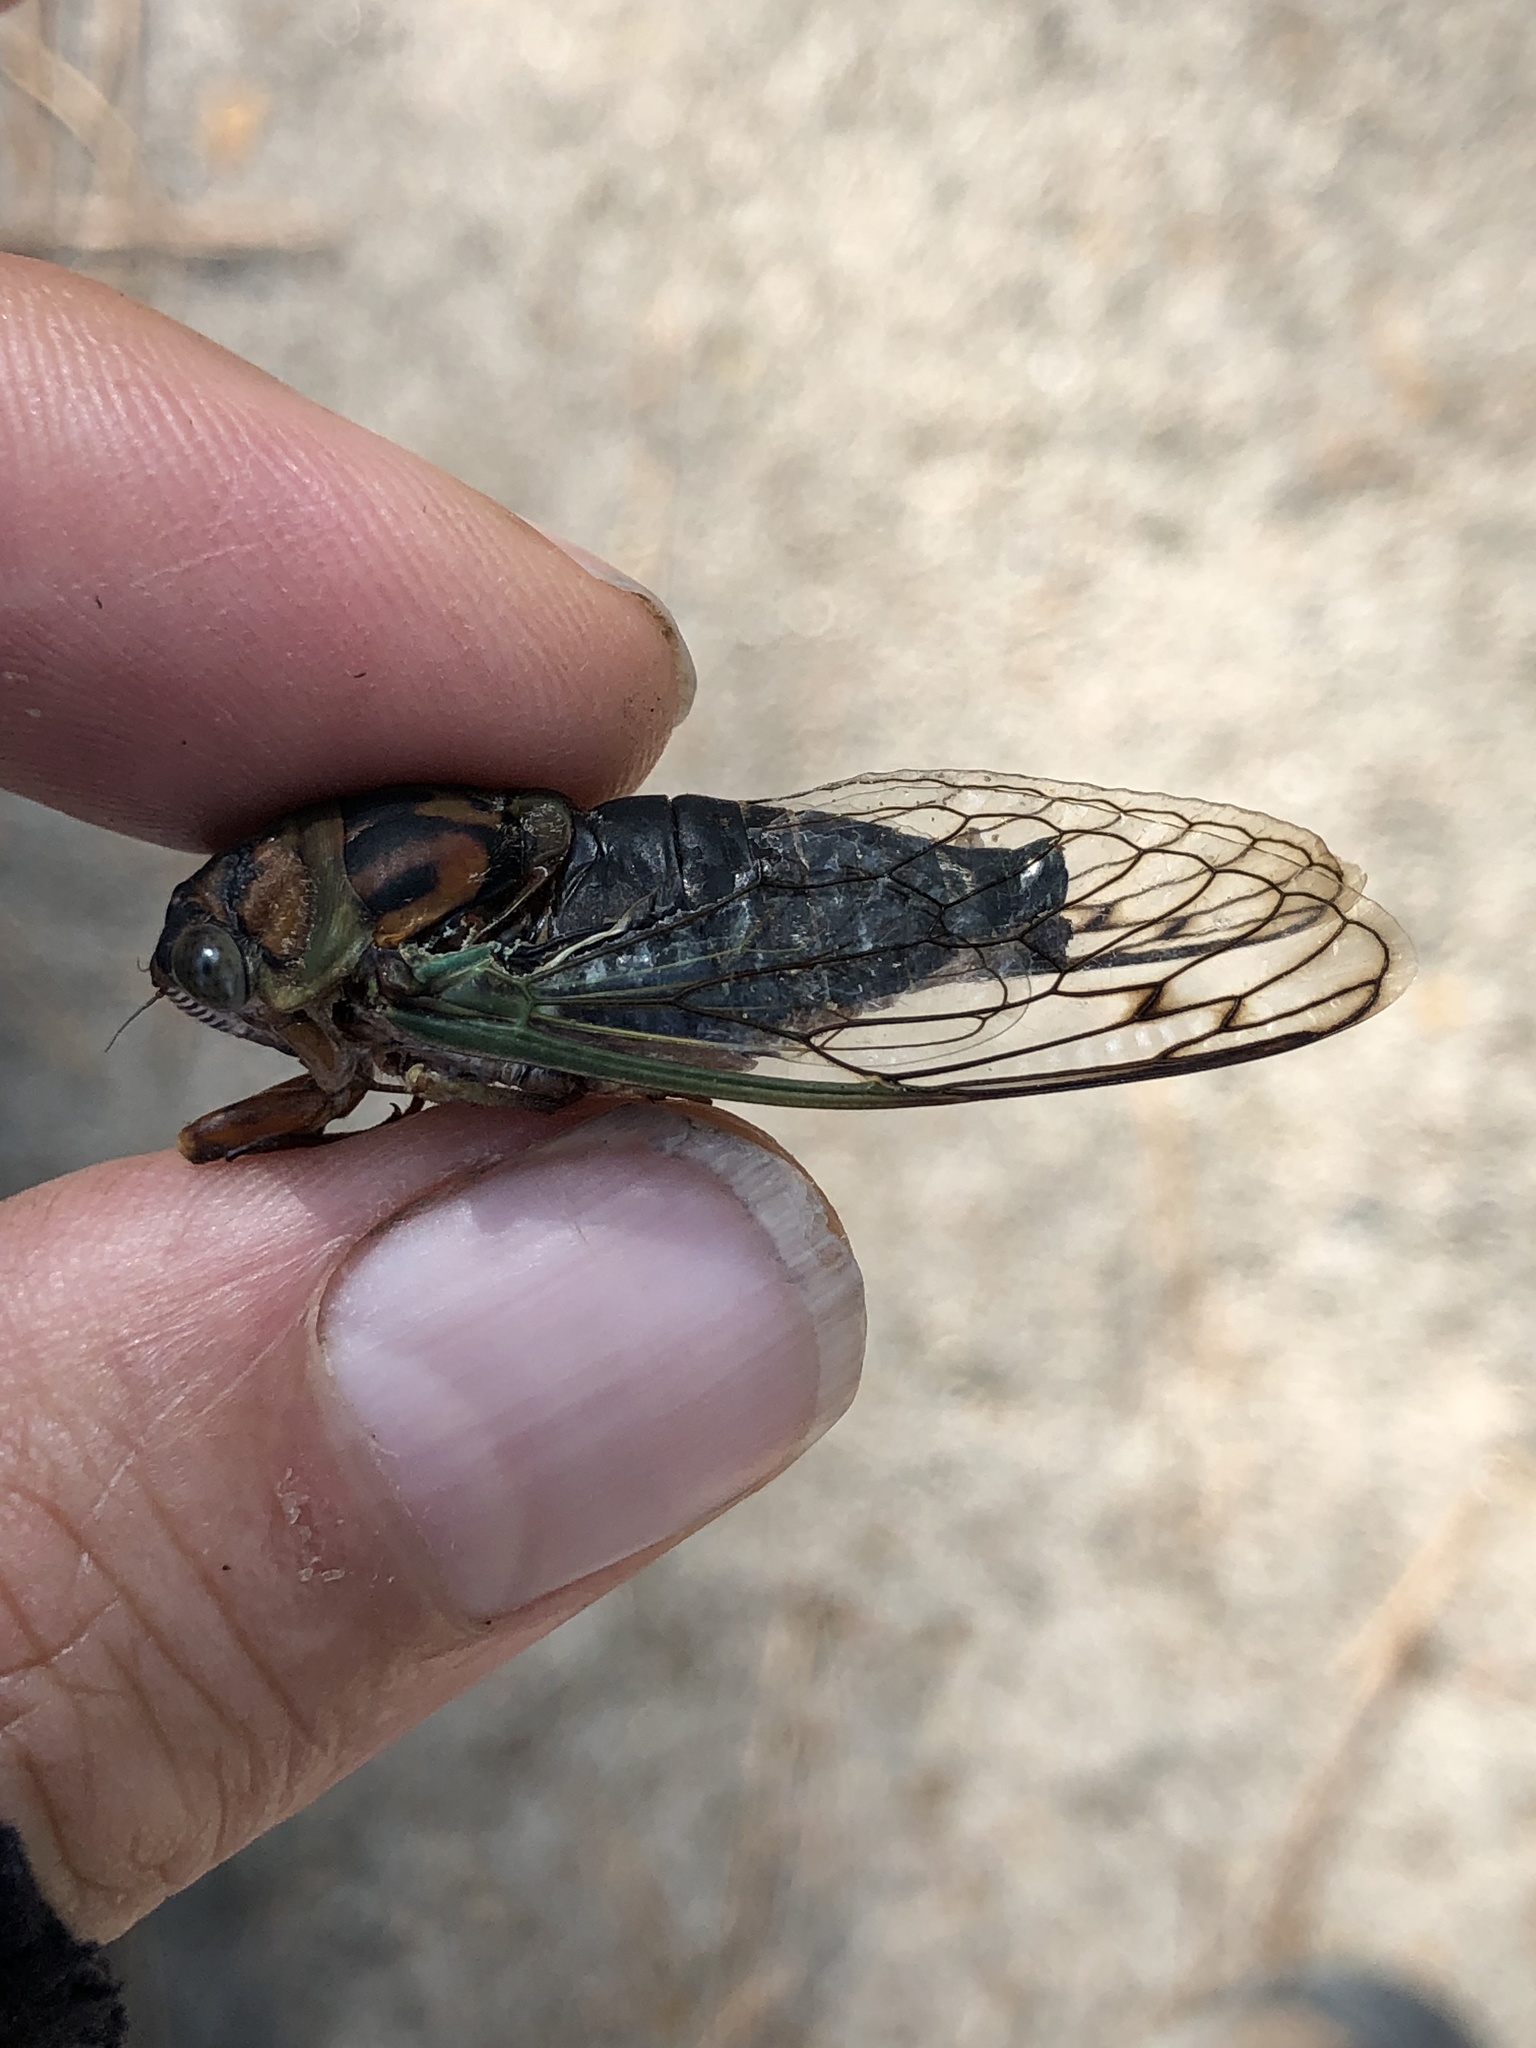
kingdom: Animalia
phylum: Arthropoda
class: Insecta
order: Hemiptera
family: Cicadidae
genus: Neotibicen
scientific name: Neotibicen davisi
